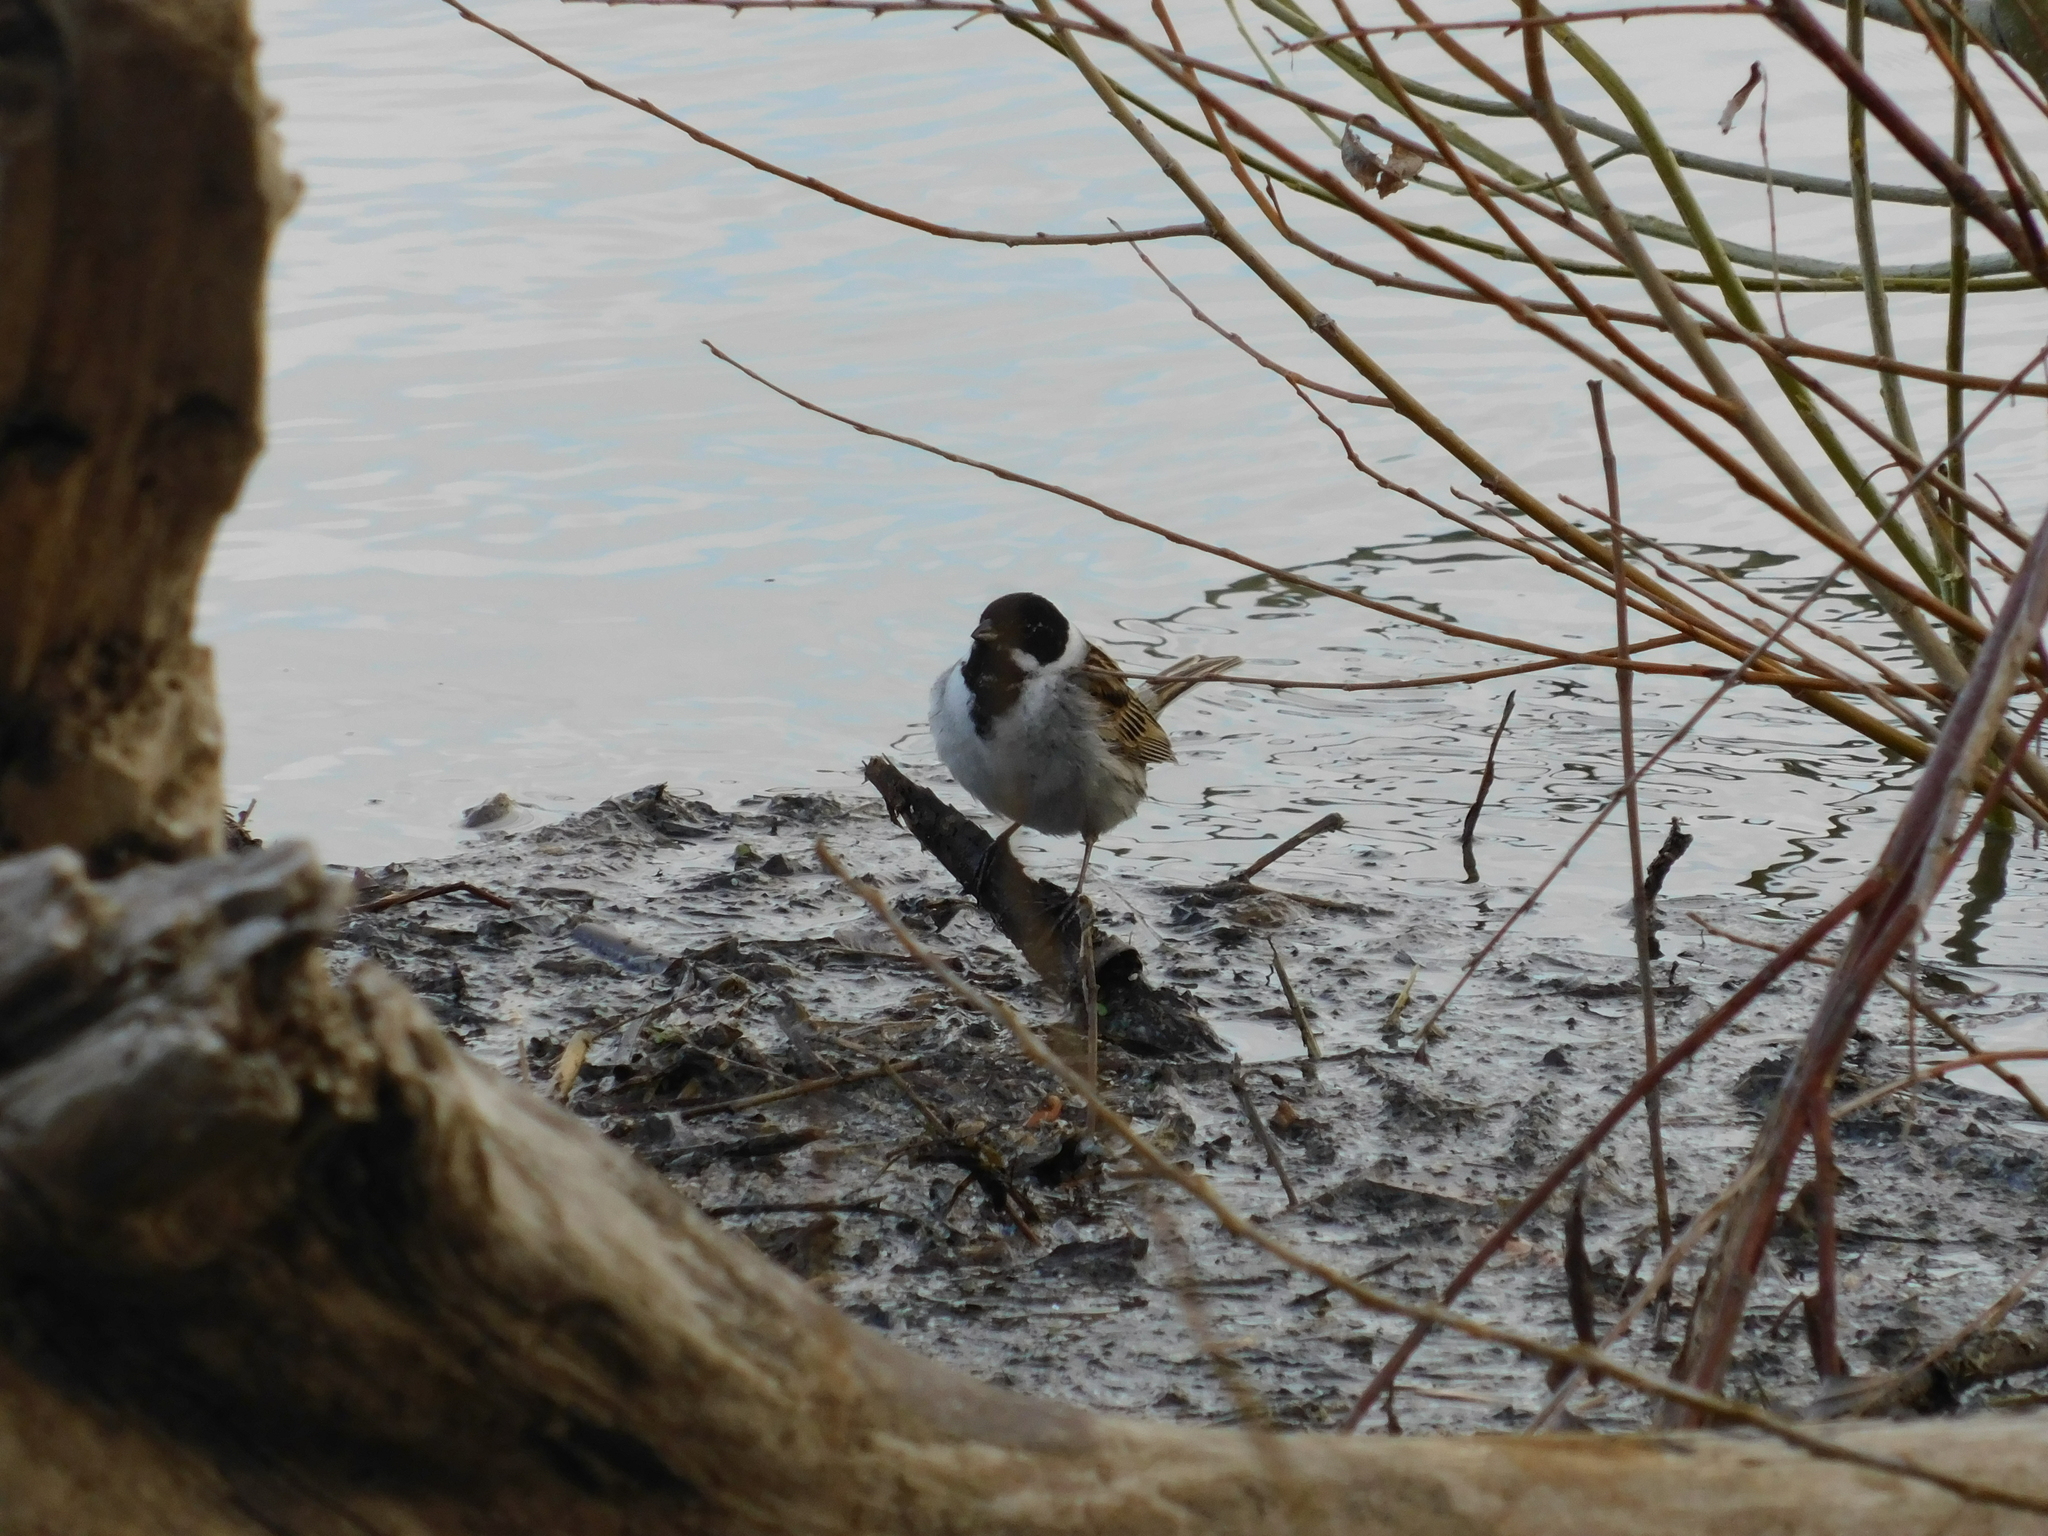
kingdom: Animalia
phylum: Chordata
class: Aves
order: Passeriformes
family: Emberizidae
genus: Emberiza
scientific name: Emberiza schoeniclus
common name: Reed bunting
